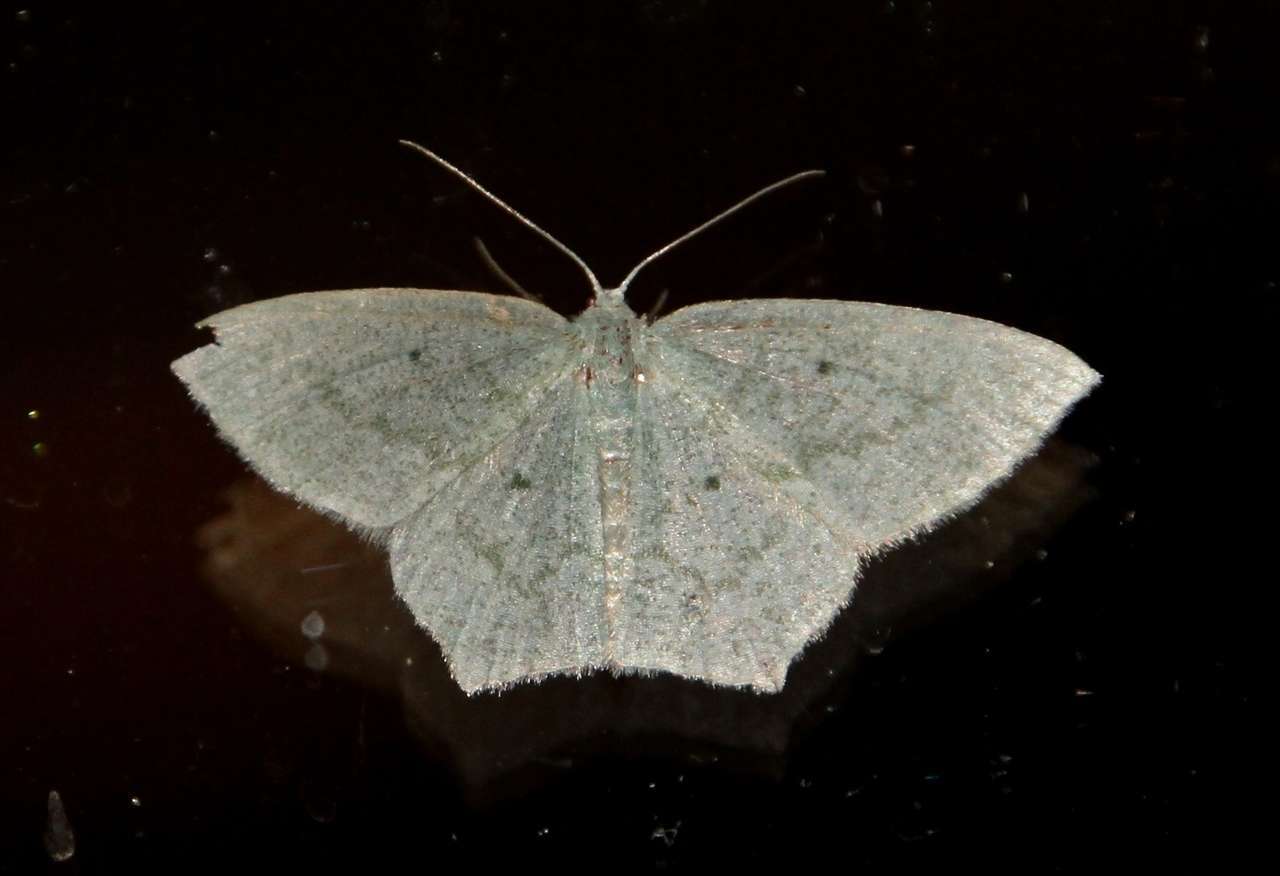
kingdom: Animalia
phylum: Arthropoda
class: Insecta
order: Lepidoptera
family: Geometridae
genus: Maxates
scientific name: Maxates centrophylla
